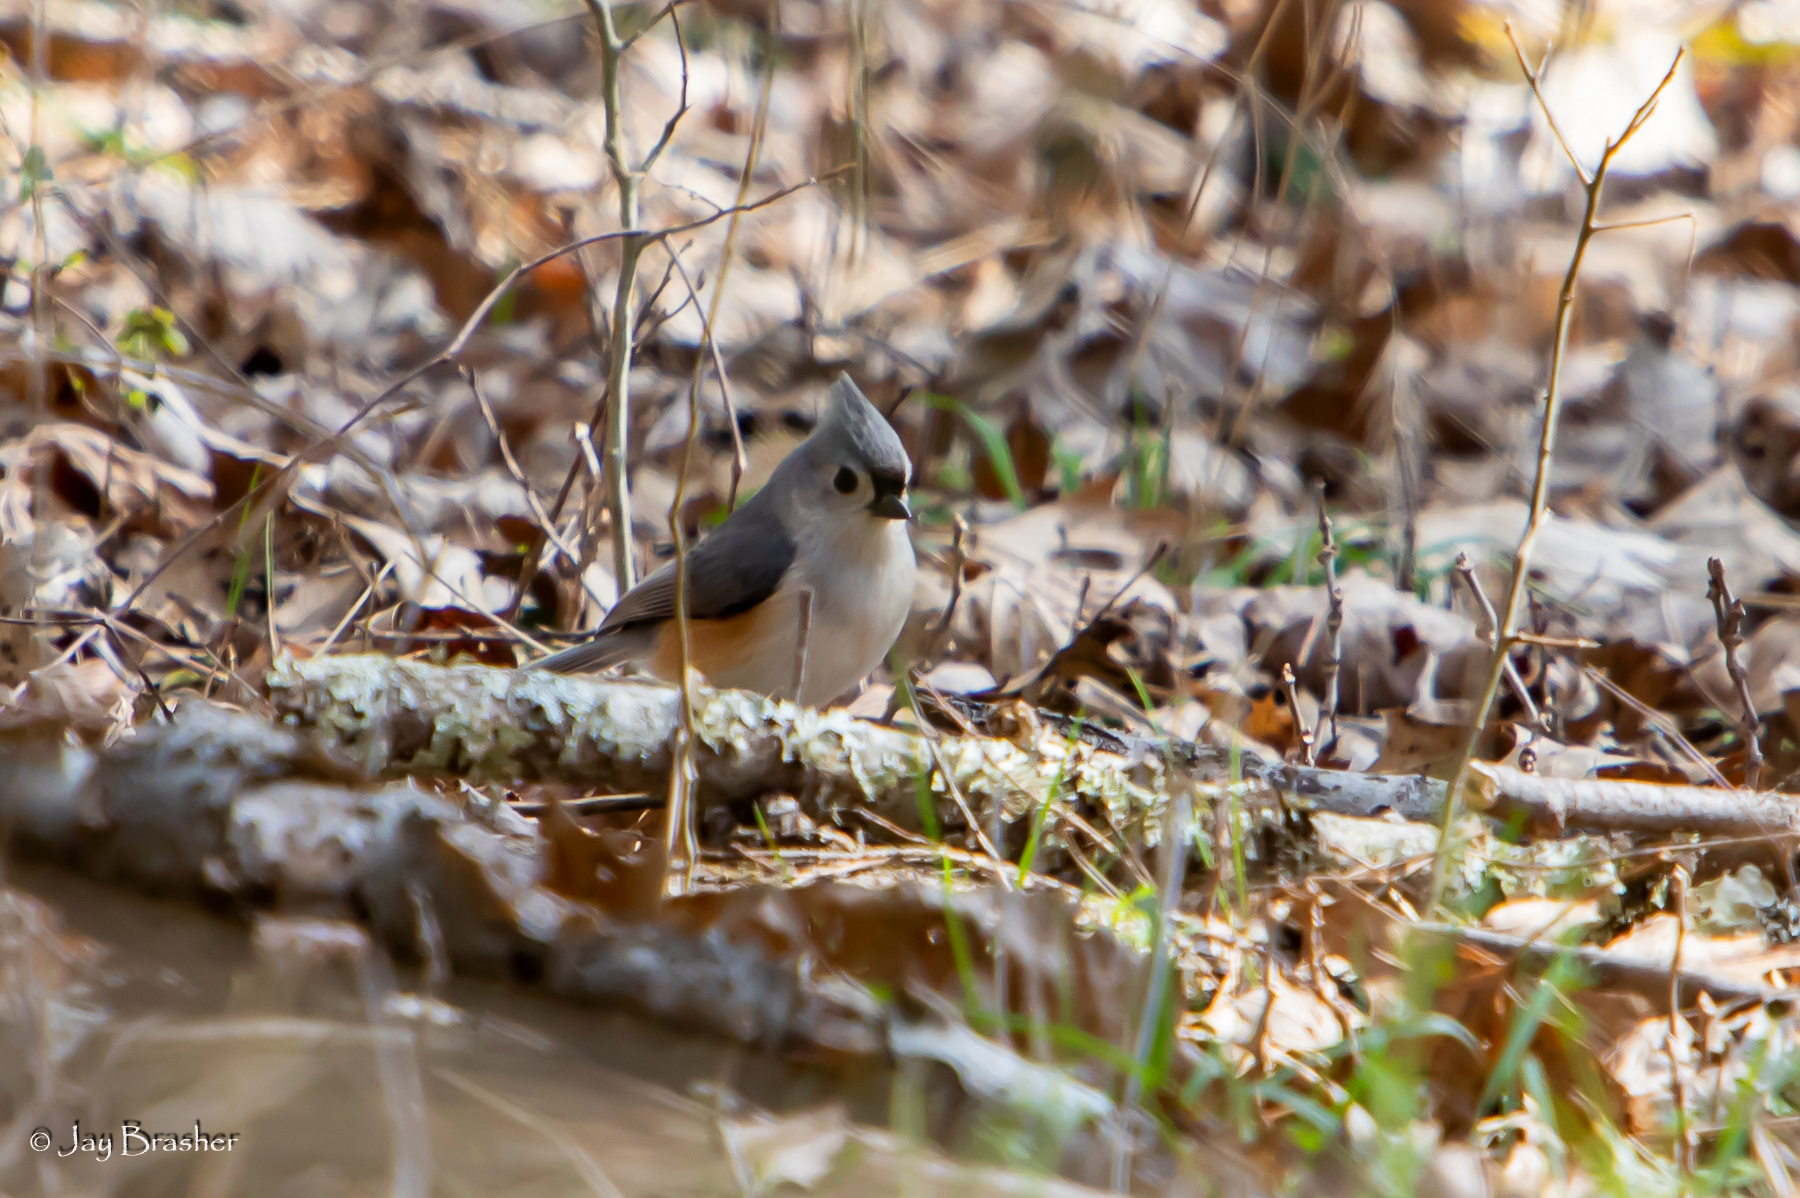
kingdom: Animalia
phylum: Chordata
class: Aves
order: Passeriformes
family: Paridae
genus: Baeolophus
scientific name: Baeolophus bicolor
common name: Tufted titmouse
